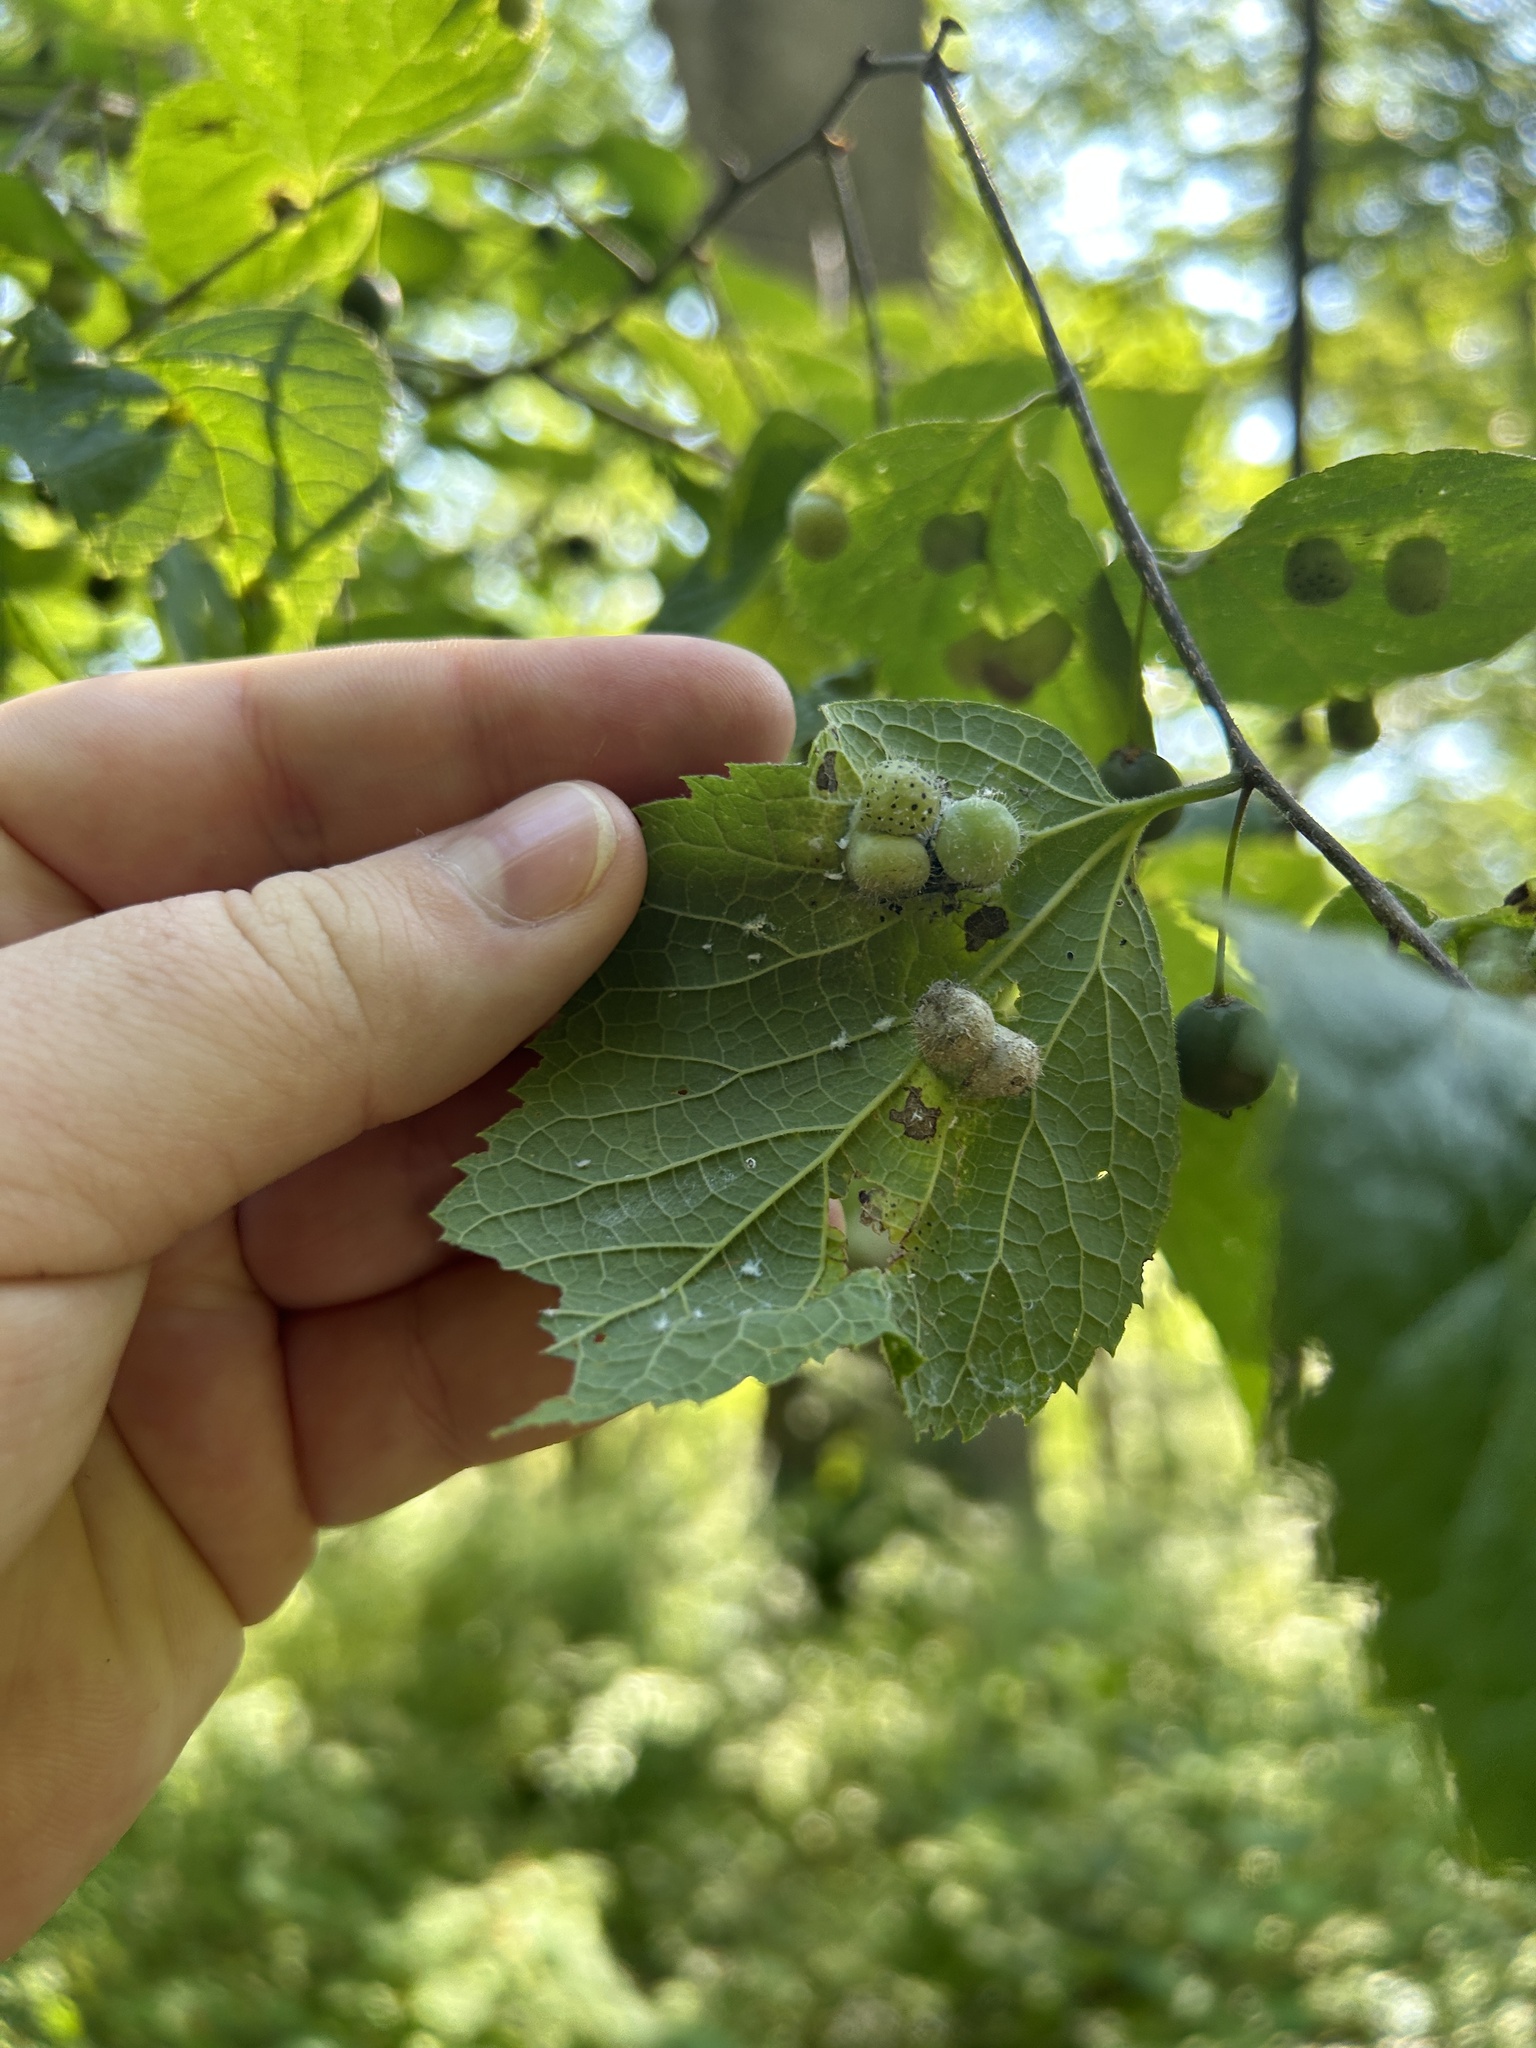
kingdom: Animalia
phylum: Arthropoda
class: Insecta
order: Hemiptera
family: Aphalaridae
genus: Pachypsylla
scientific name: Pachypsylla celtidismamma
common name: Hackberry nipplegall psyllid
